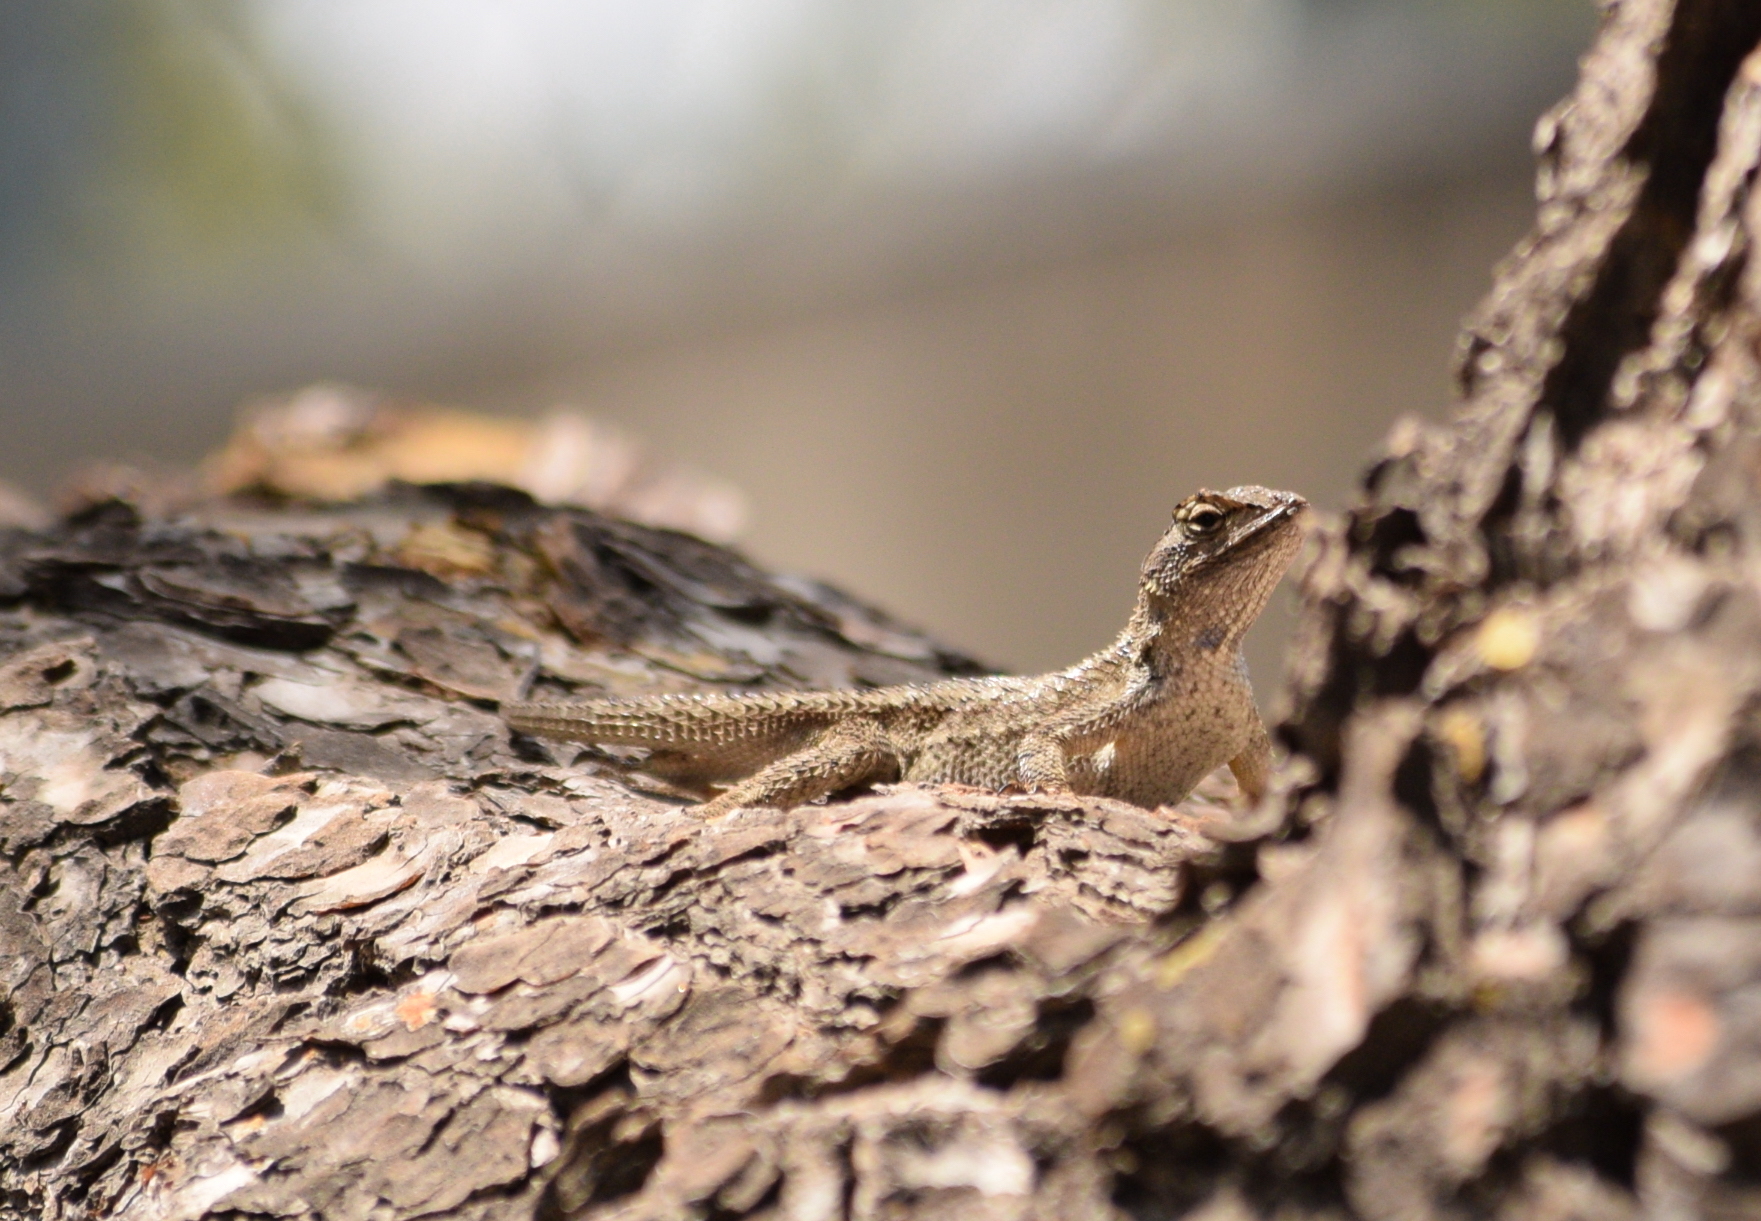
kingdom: Animalia
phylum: Chordata
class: Squamata
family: Phrynosomatidae
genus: Sceloporus
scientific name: Sceloporus occidentalis
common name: Western fence lizard
